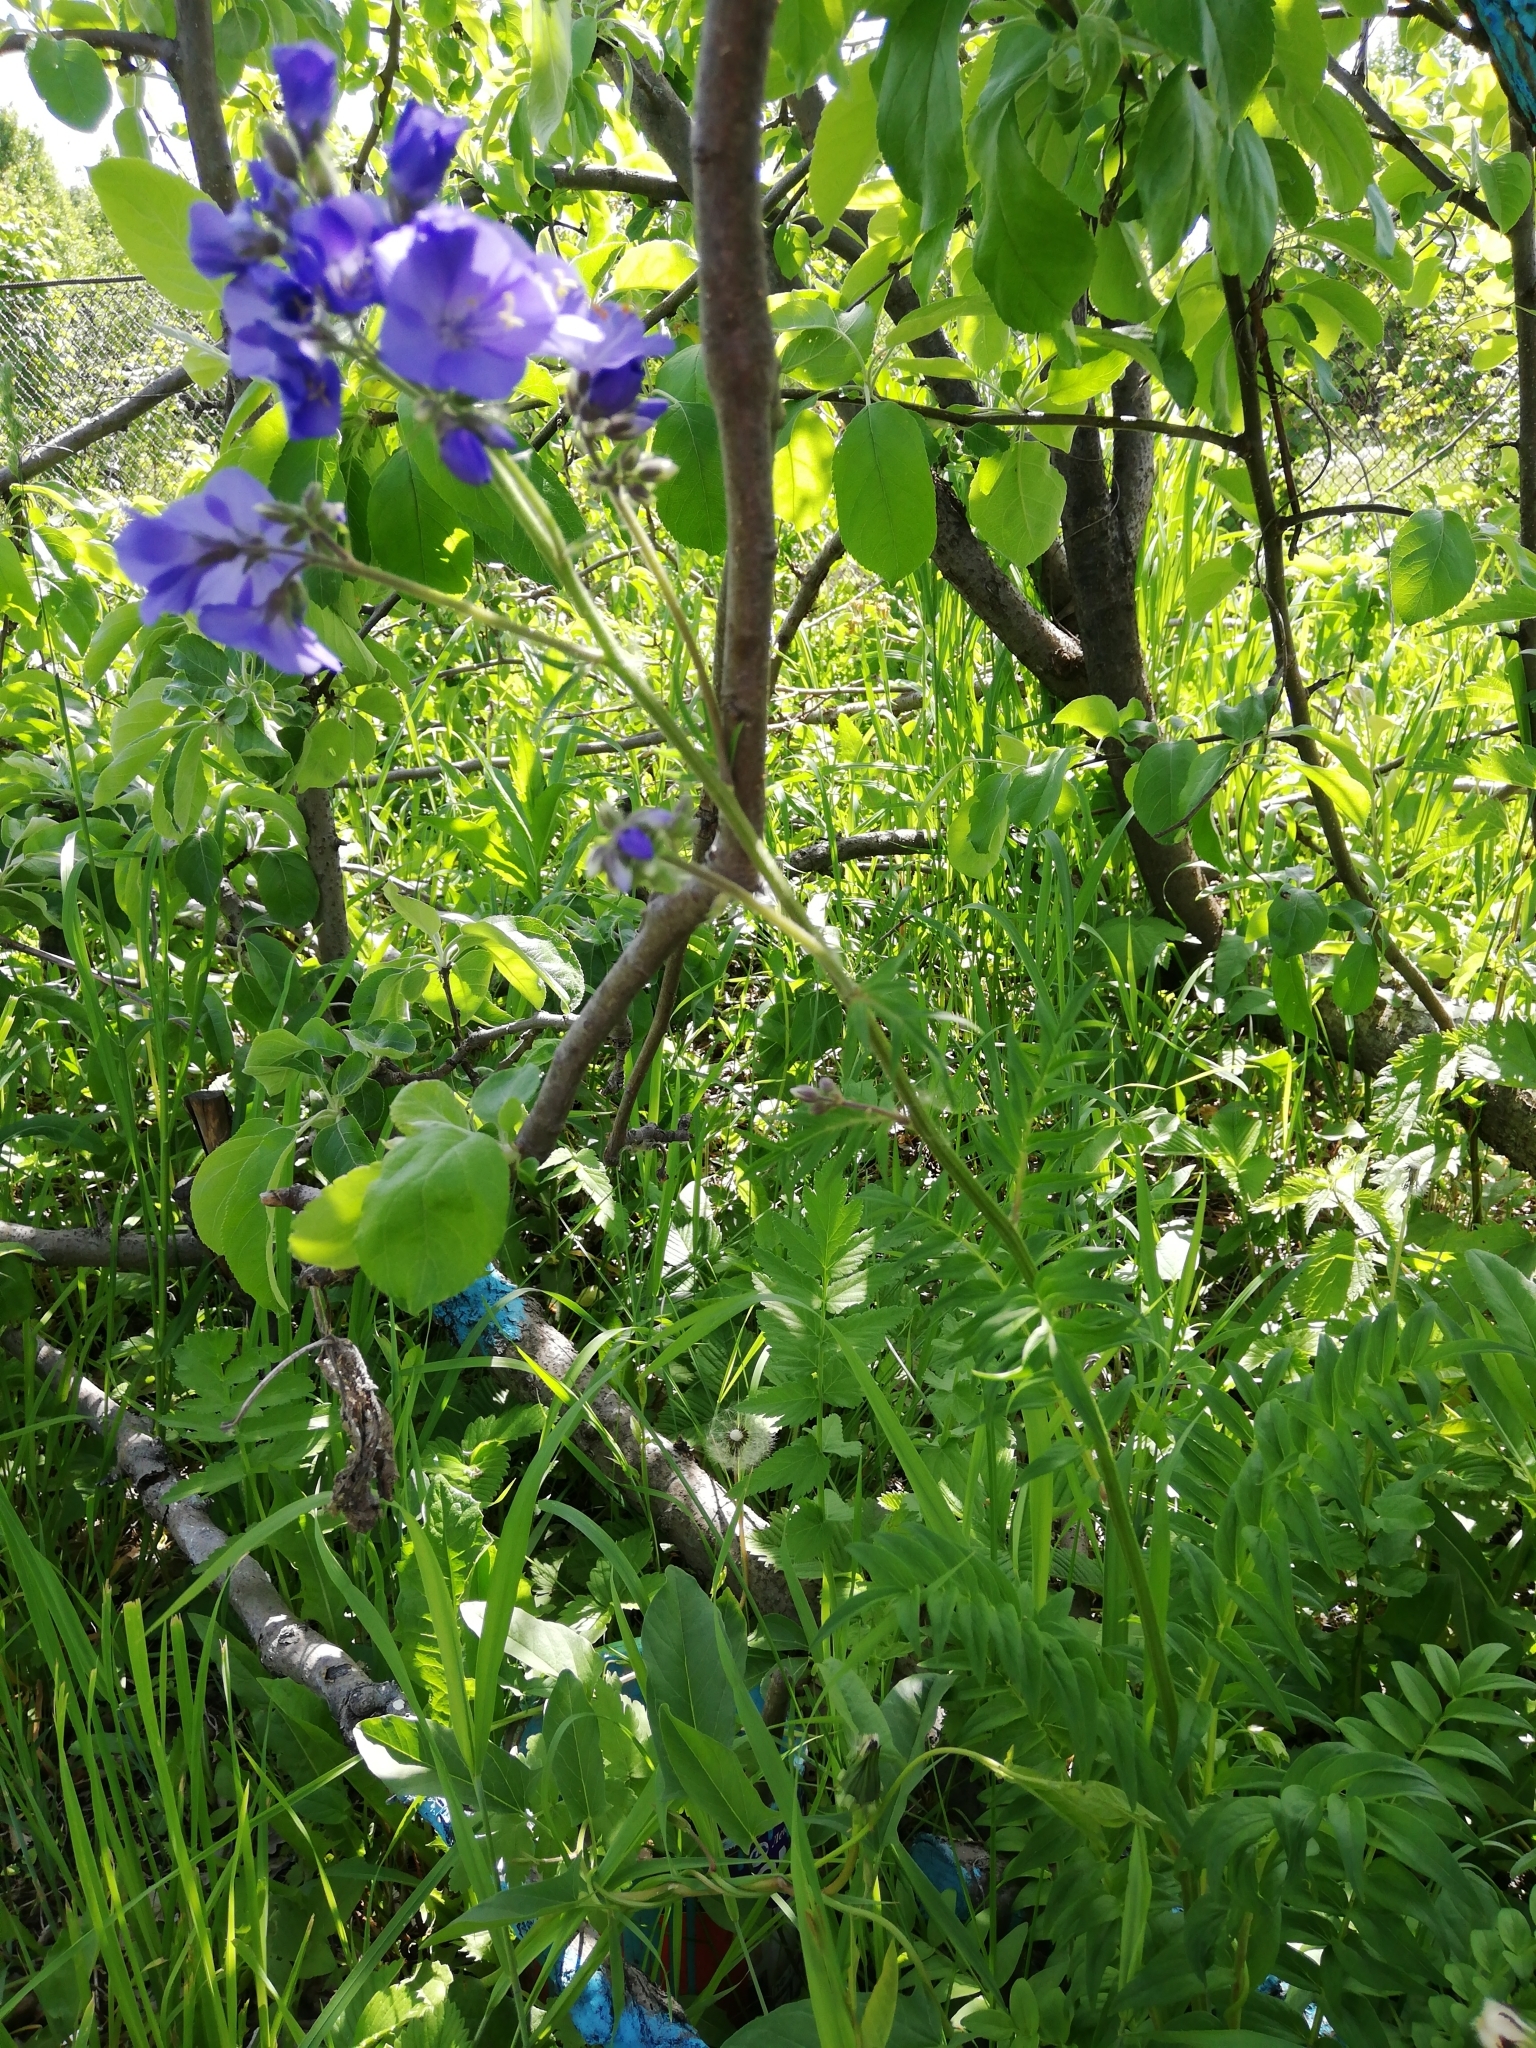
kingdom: Plantae
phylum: Tracheophyta
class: Magnoliopsida
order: Ericales
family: Polemoniaceae
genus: Polemonium
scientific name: Polemonium caeruleum
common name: Jacob's-ladder
